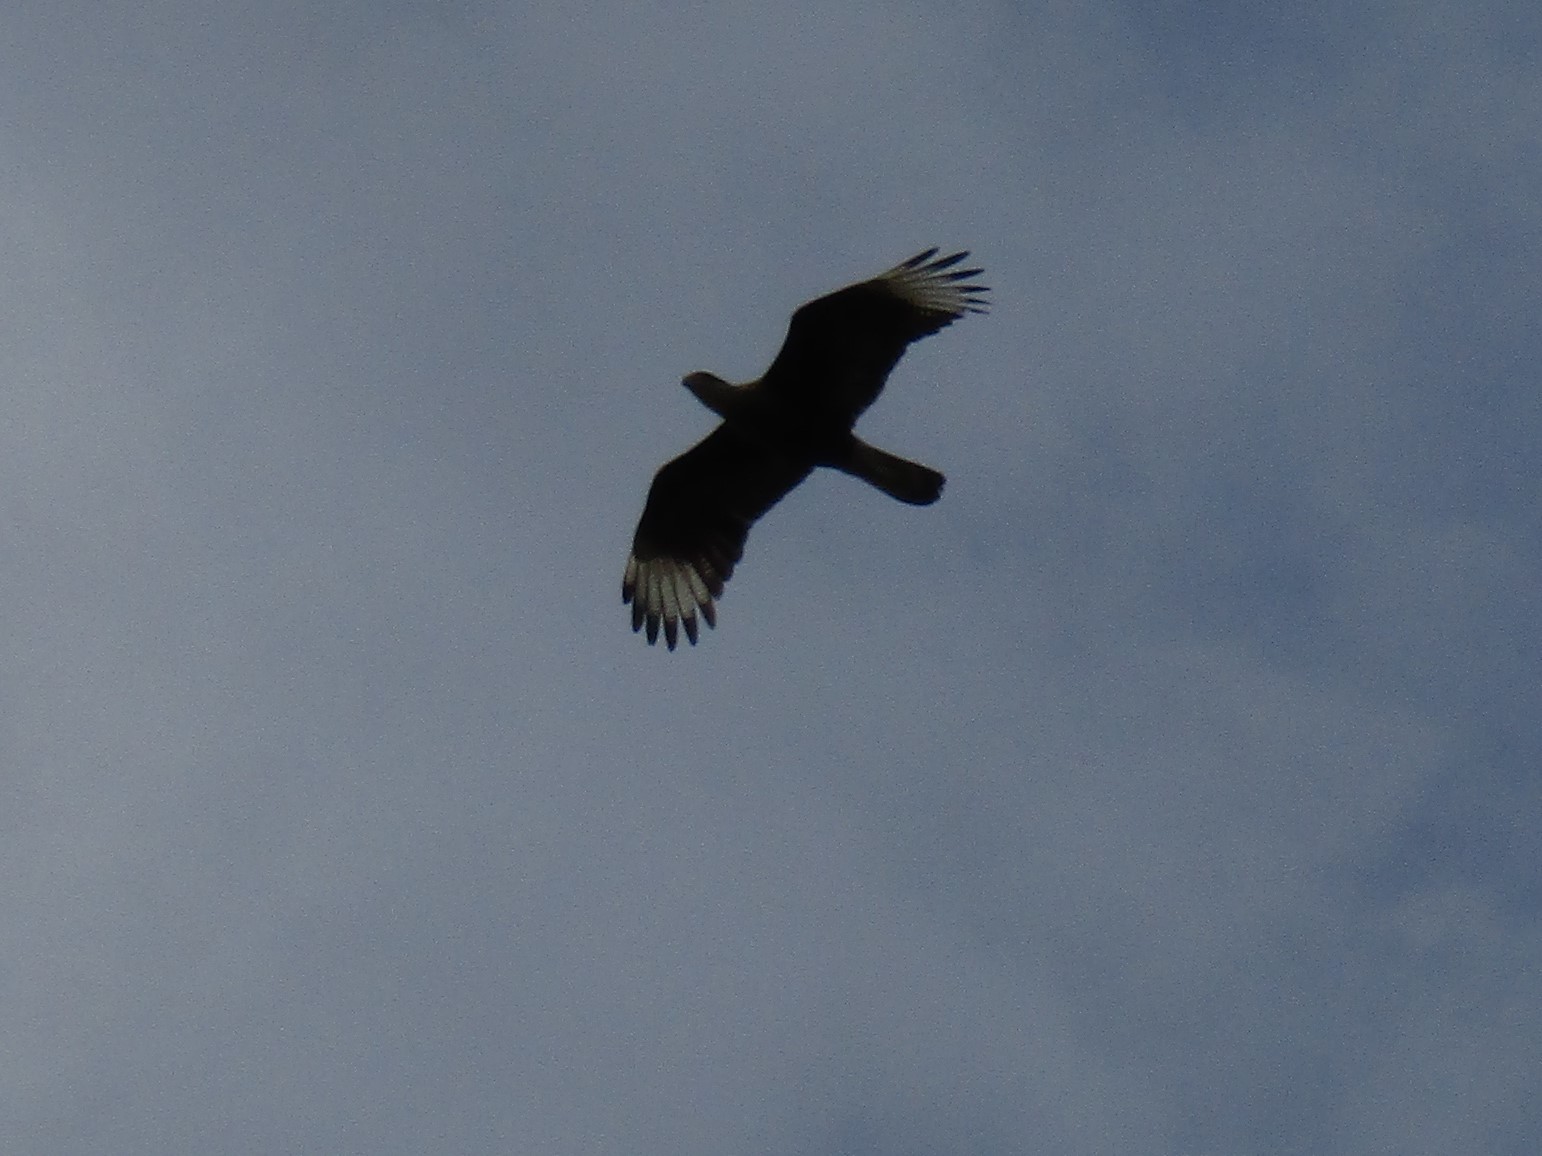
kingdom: Animalia
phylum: Chordata
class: Aves
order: Falconiformes
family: Falconidae
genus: Caracara
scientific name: Caracara plancus
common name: Southern caracara
